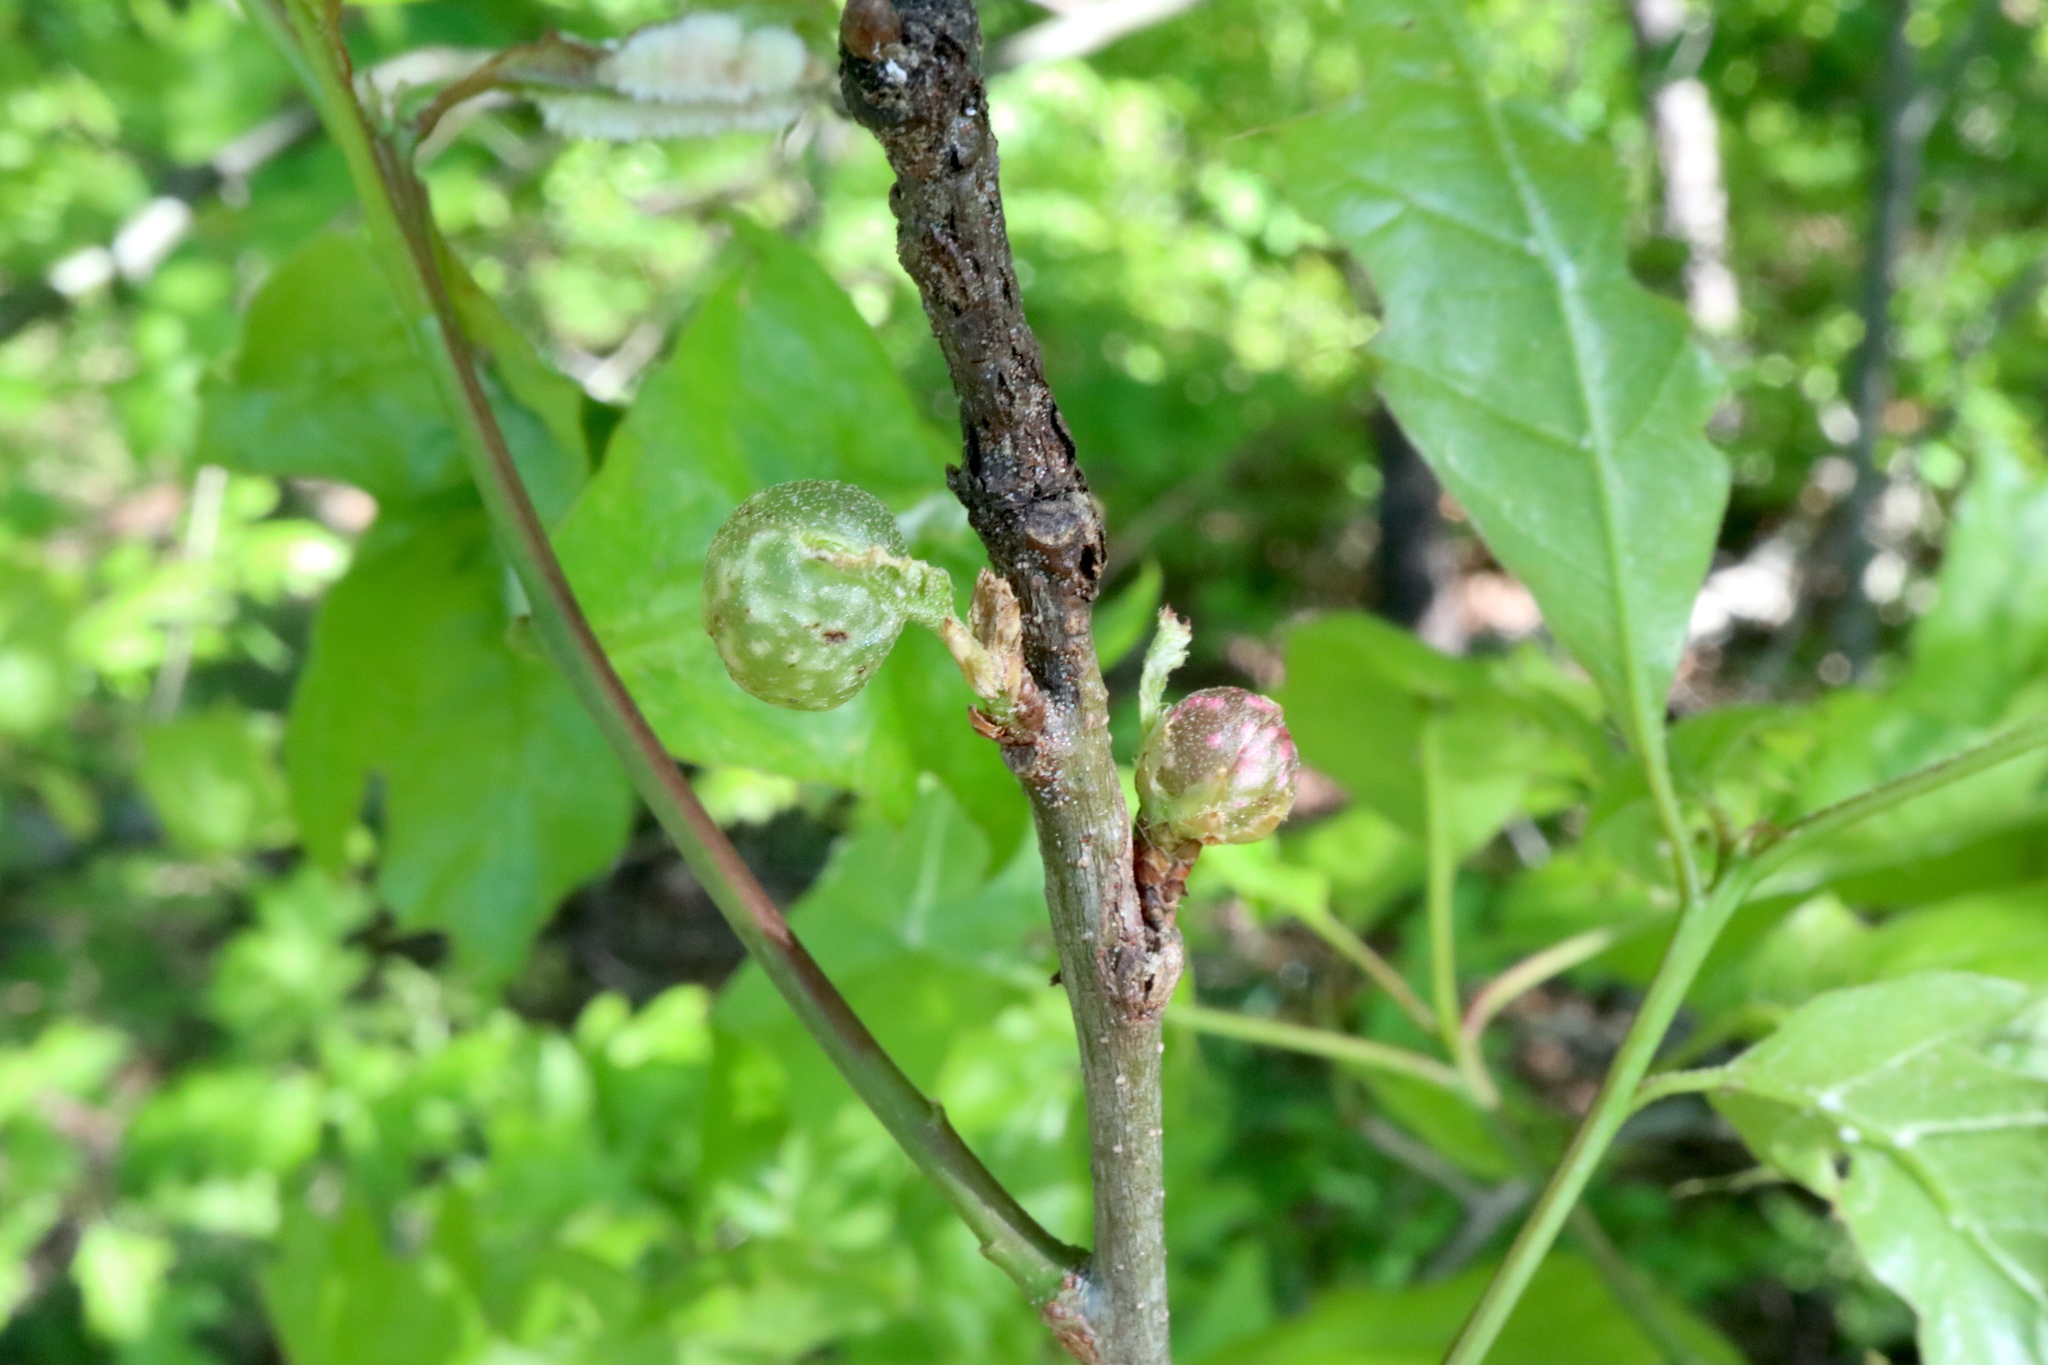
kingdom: Animalia
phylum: Arthropoda
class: Insecta
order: Hymenoptera
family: Cynipidae
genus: Dryocosmus
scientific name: Dryocosmus quercuspalustris
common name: Succulent oak gall wasp
